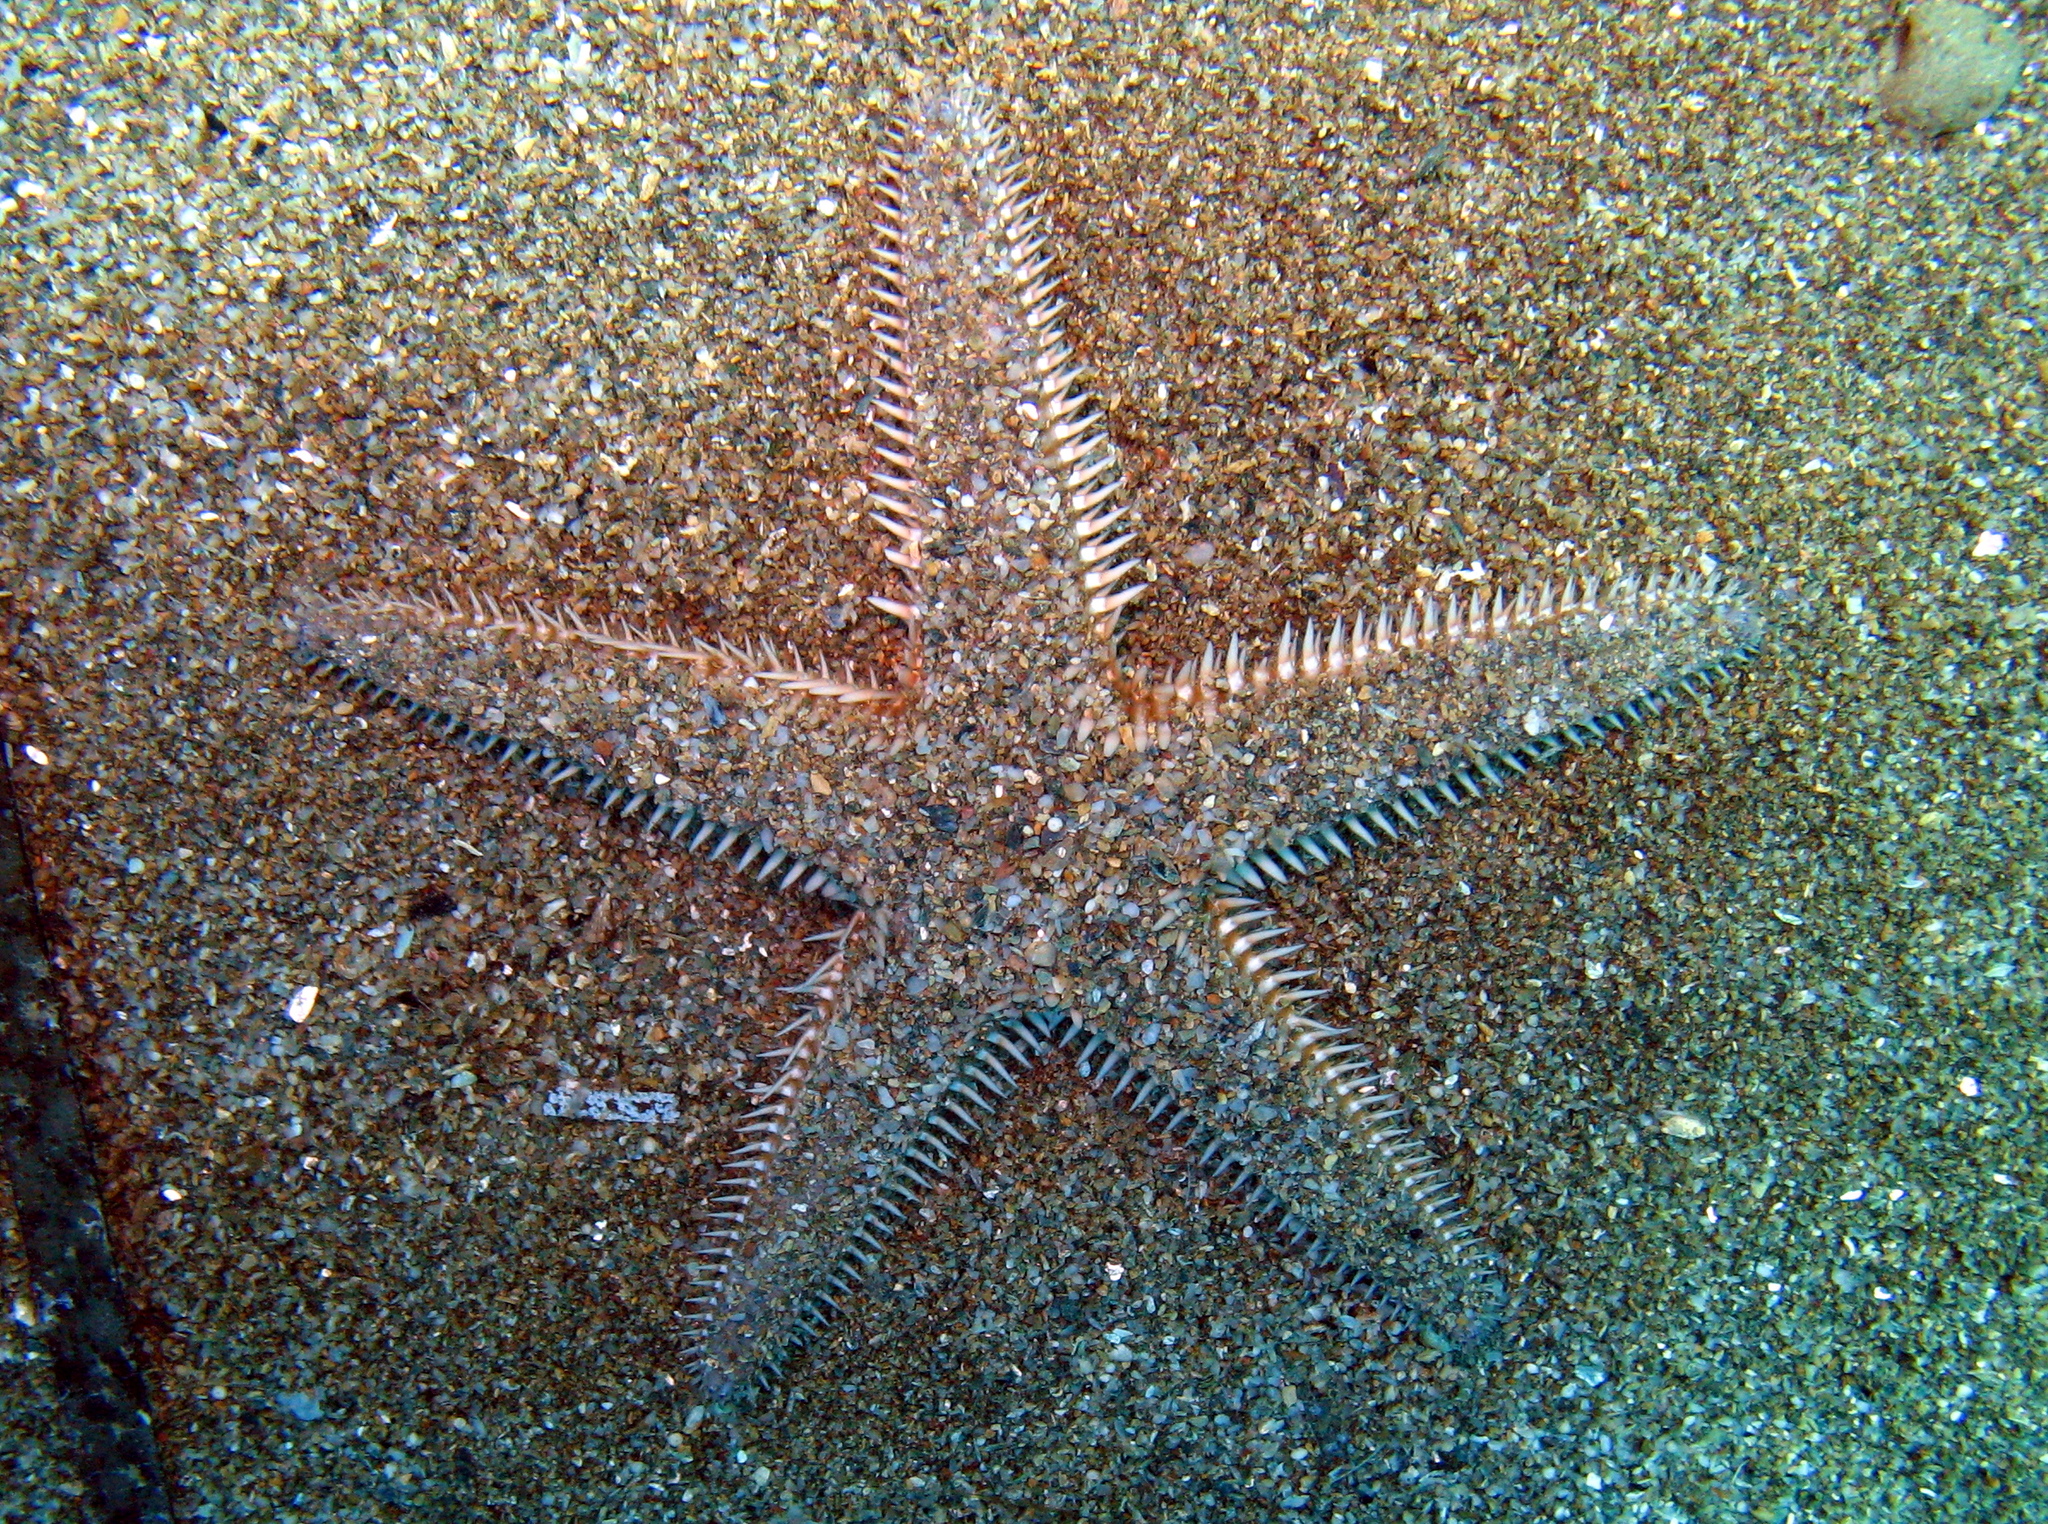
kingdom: Animalia
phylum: Echinodermata
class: Asteroidea
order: Paxillosida
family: Astropectinidae
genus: Astropecten
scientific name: Astropecten bispinosus
